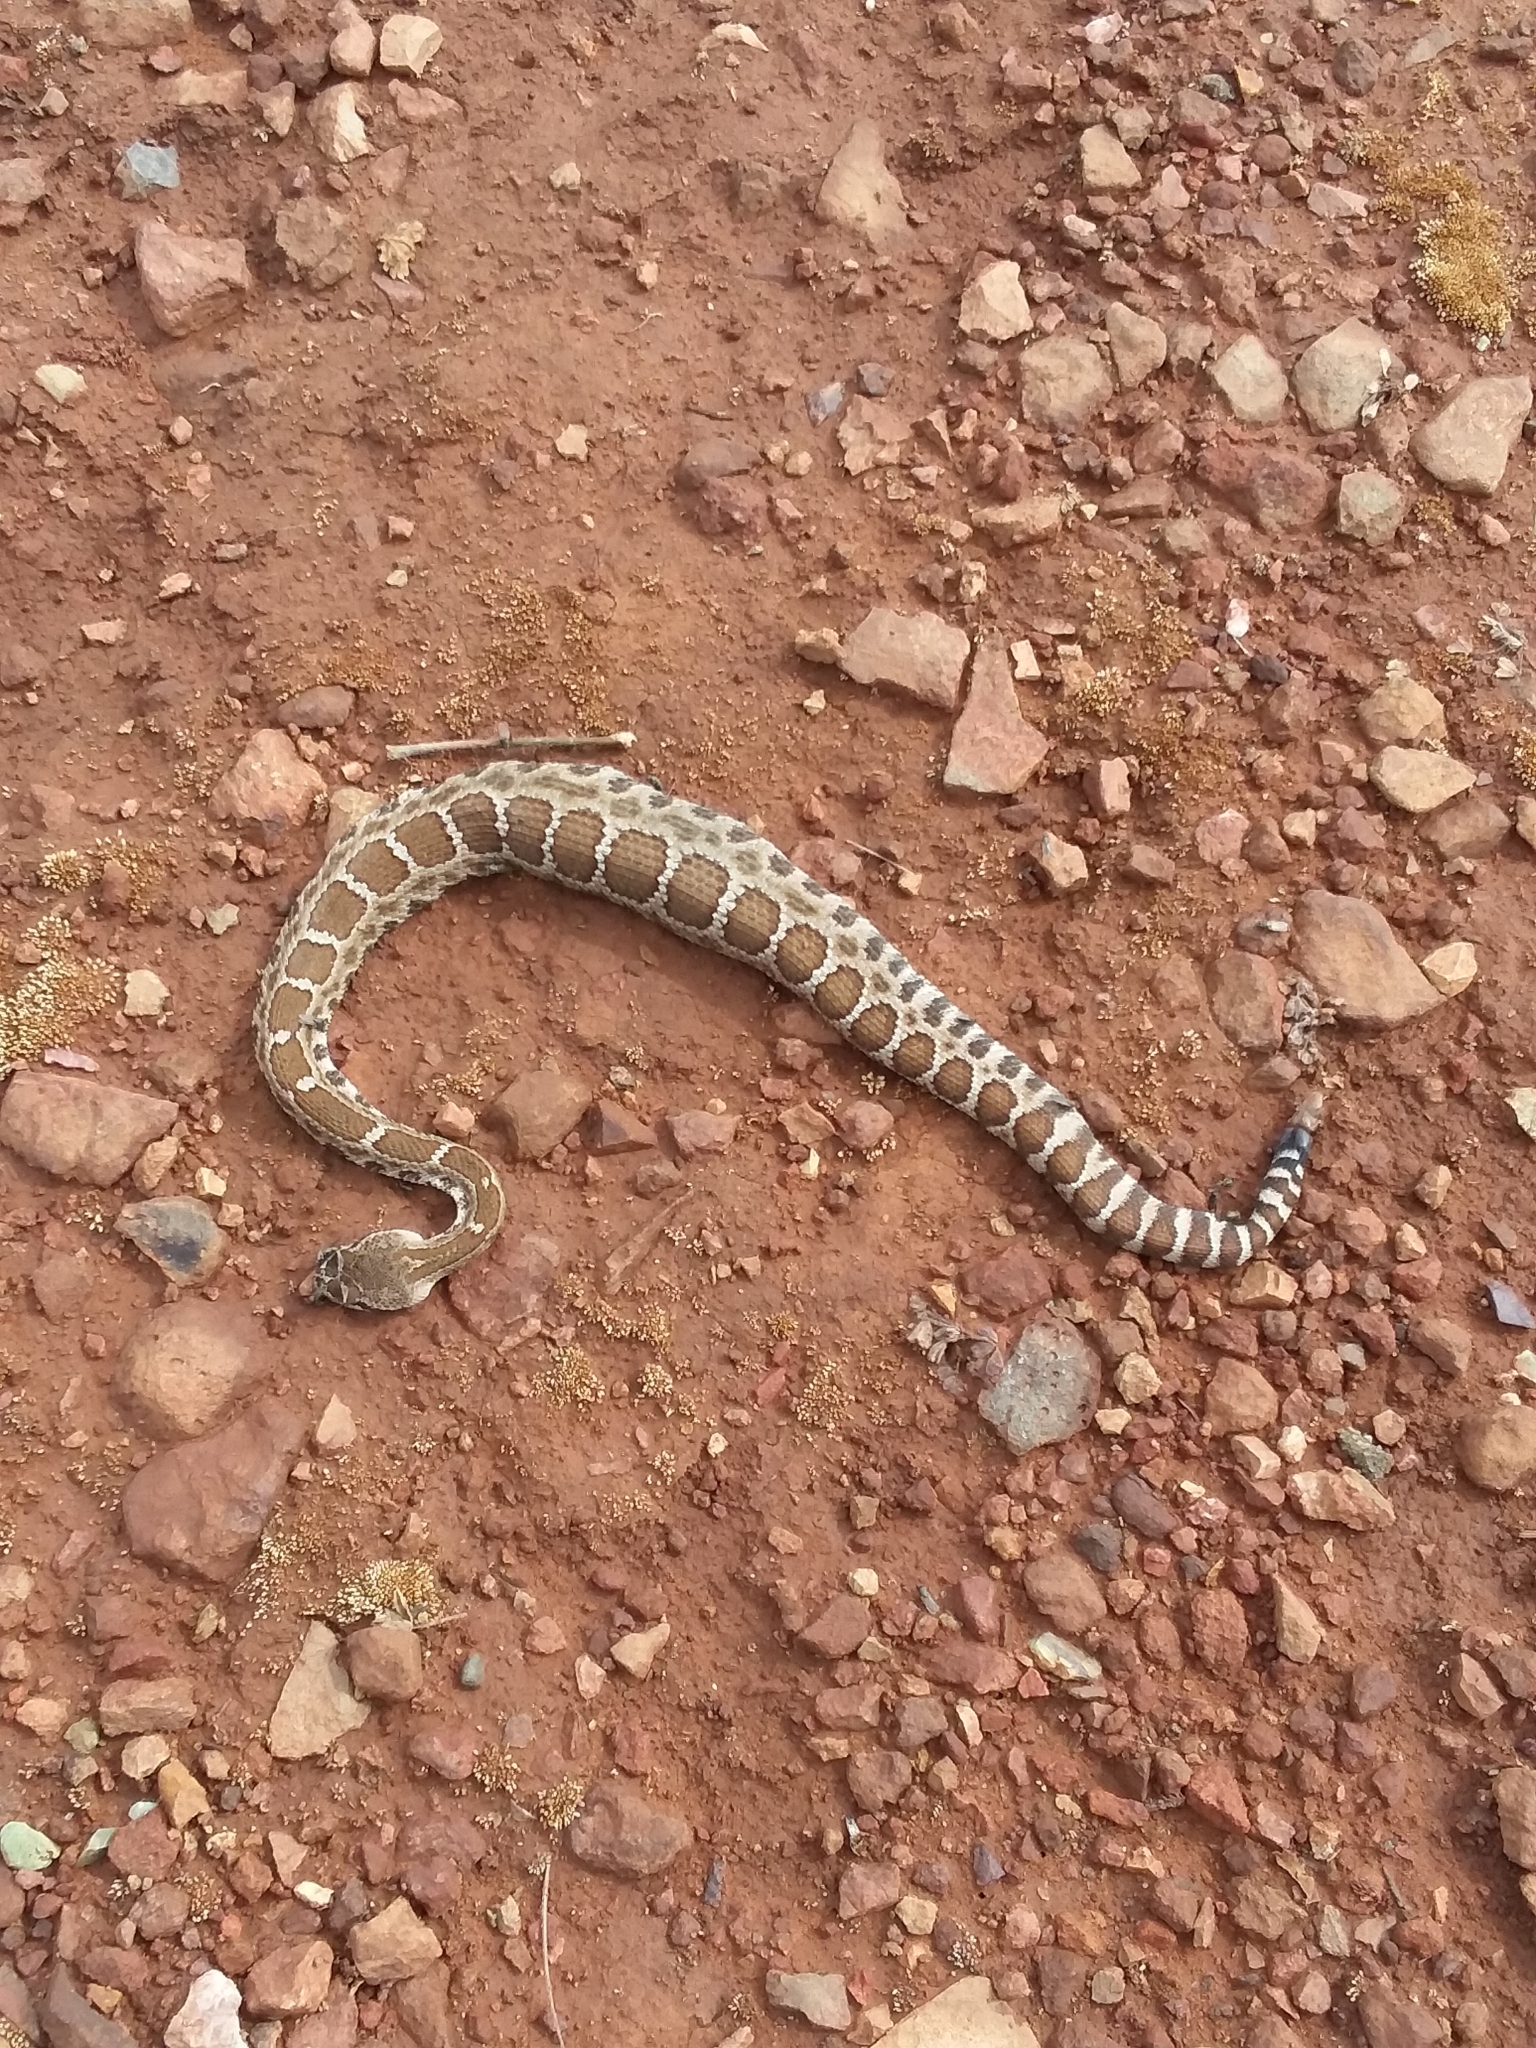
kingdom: Animalia
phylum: Chordata
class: Squamata
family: Viperidae
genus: Crotalus
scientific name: Crotalus oreganus
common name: Abyssus
